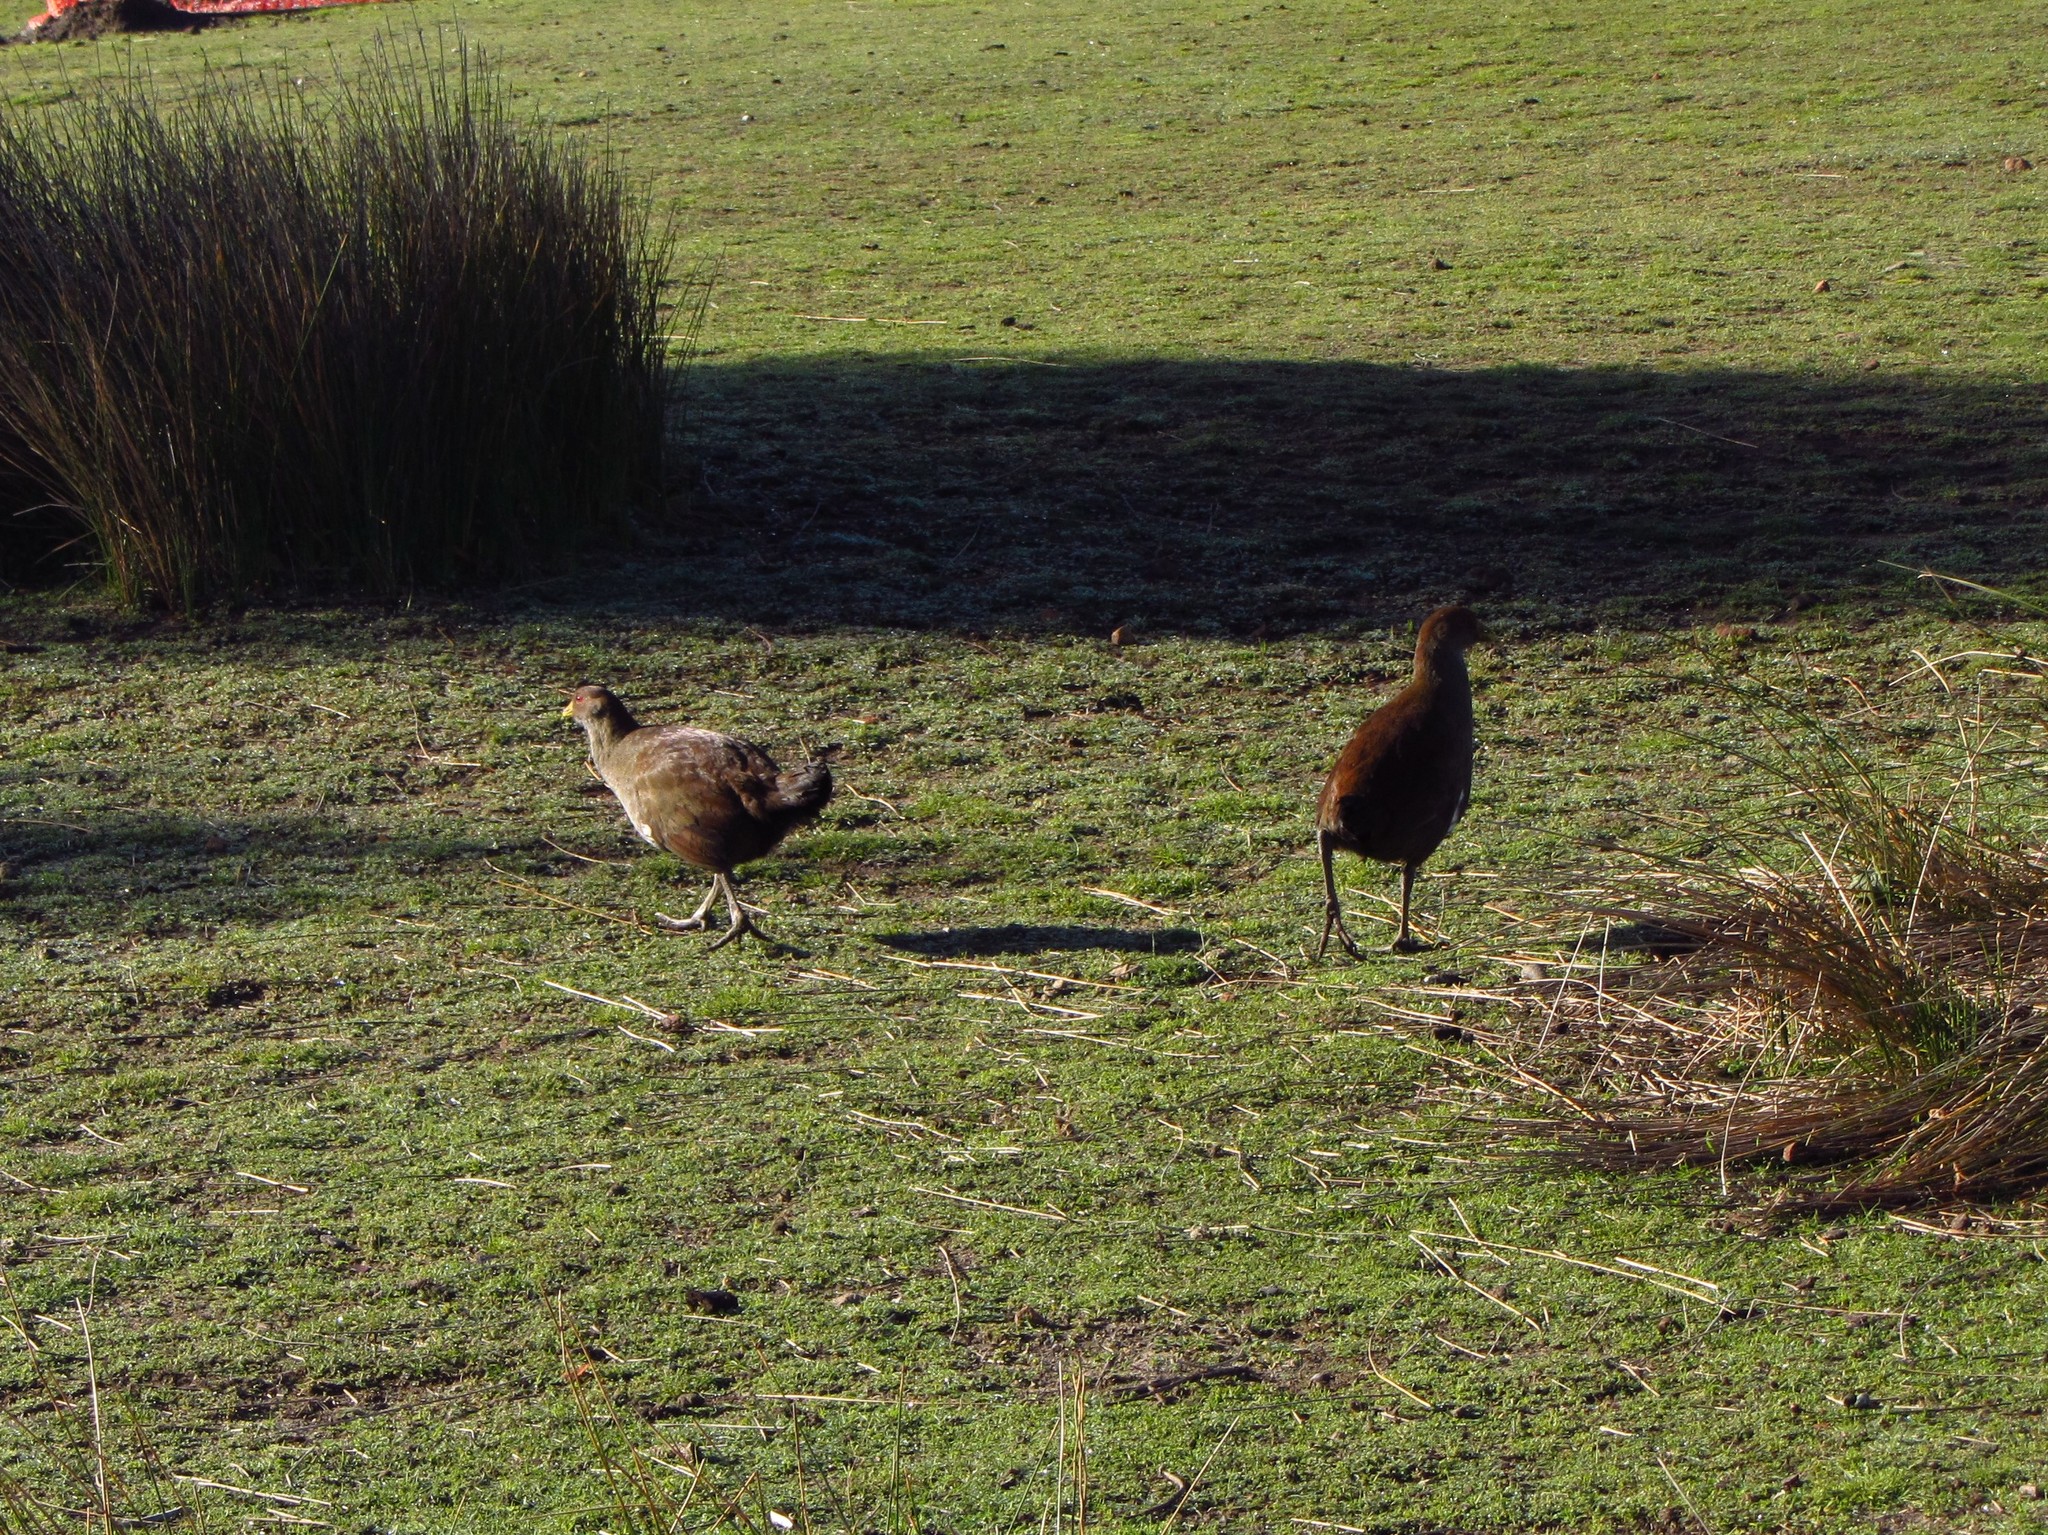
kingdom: Animalia
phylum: Chordata
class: Aves
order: Gruiformes
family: Rallidae
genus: Gallinula
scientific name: Gallinula mortierii
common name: Tasmanian nativehen
